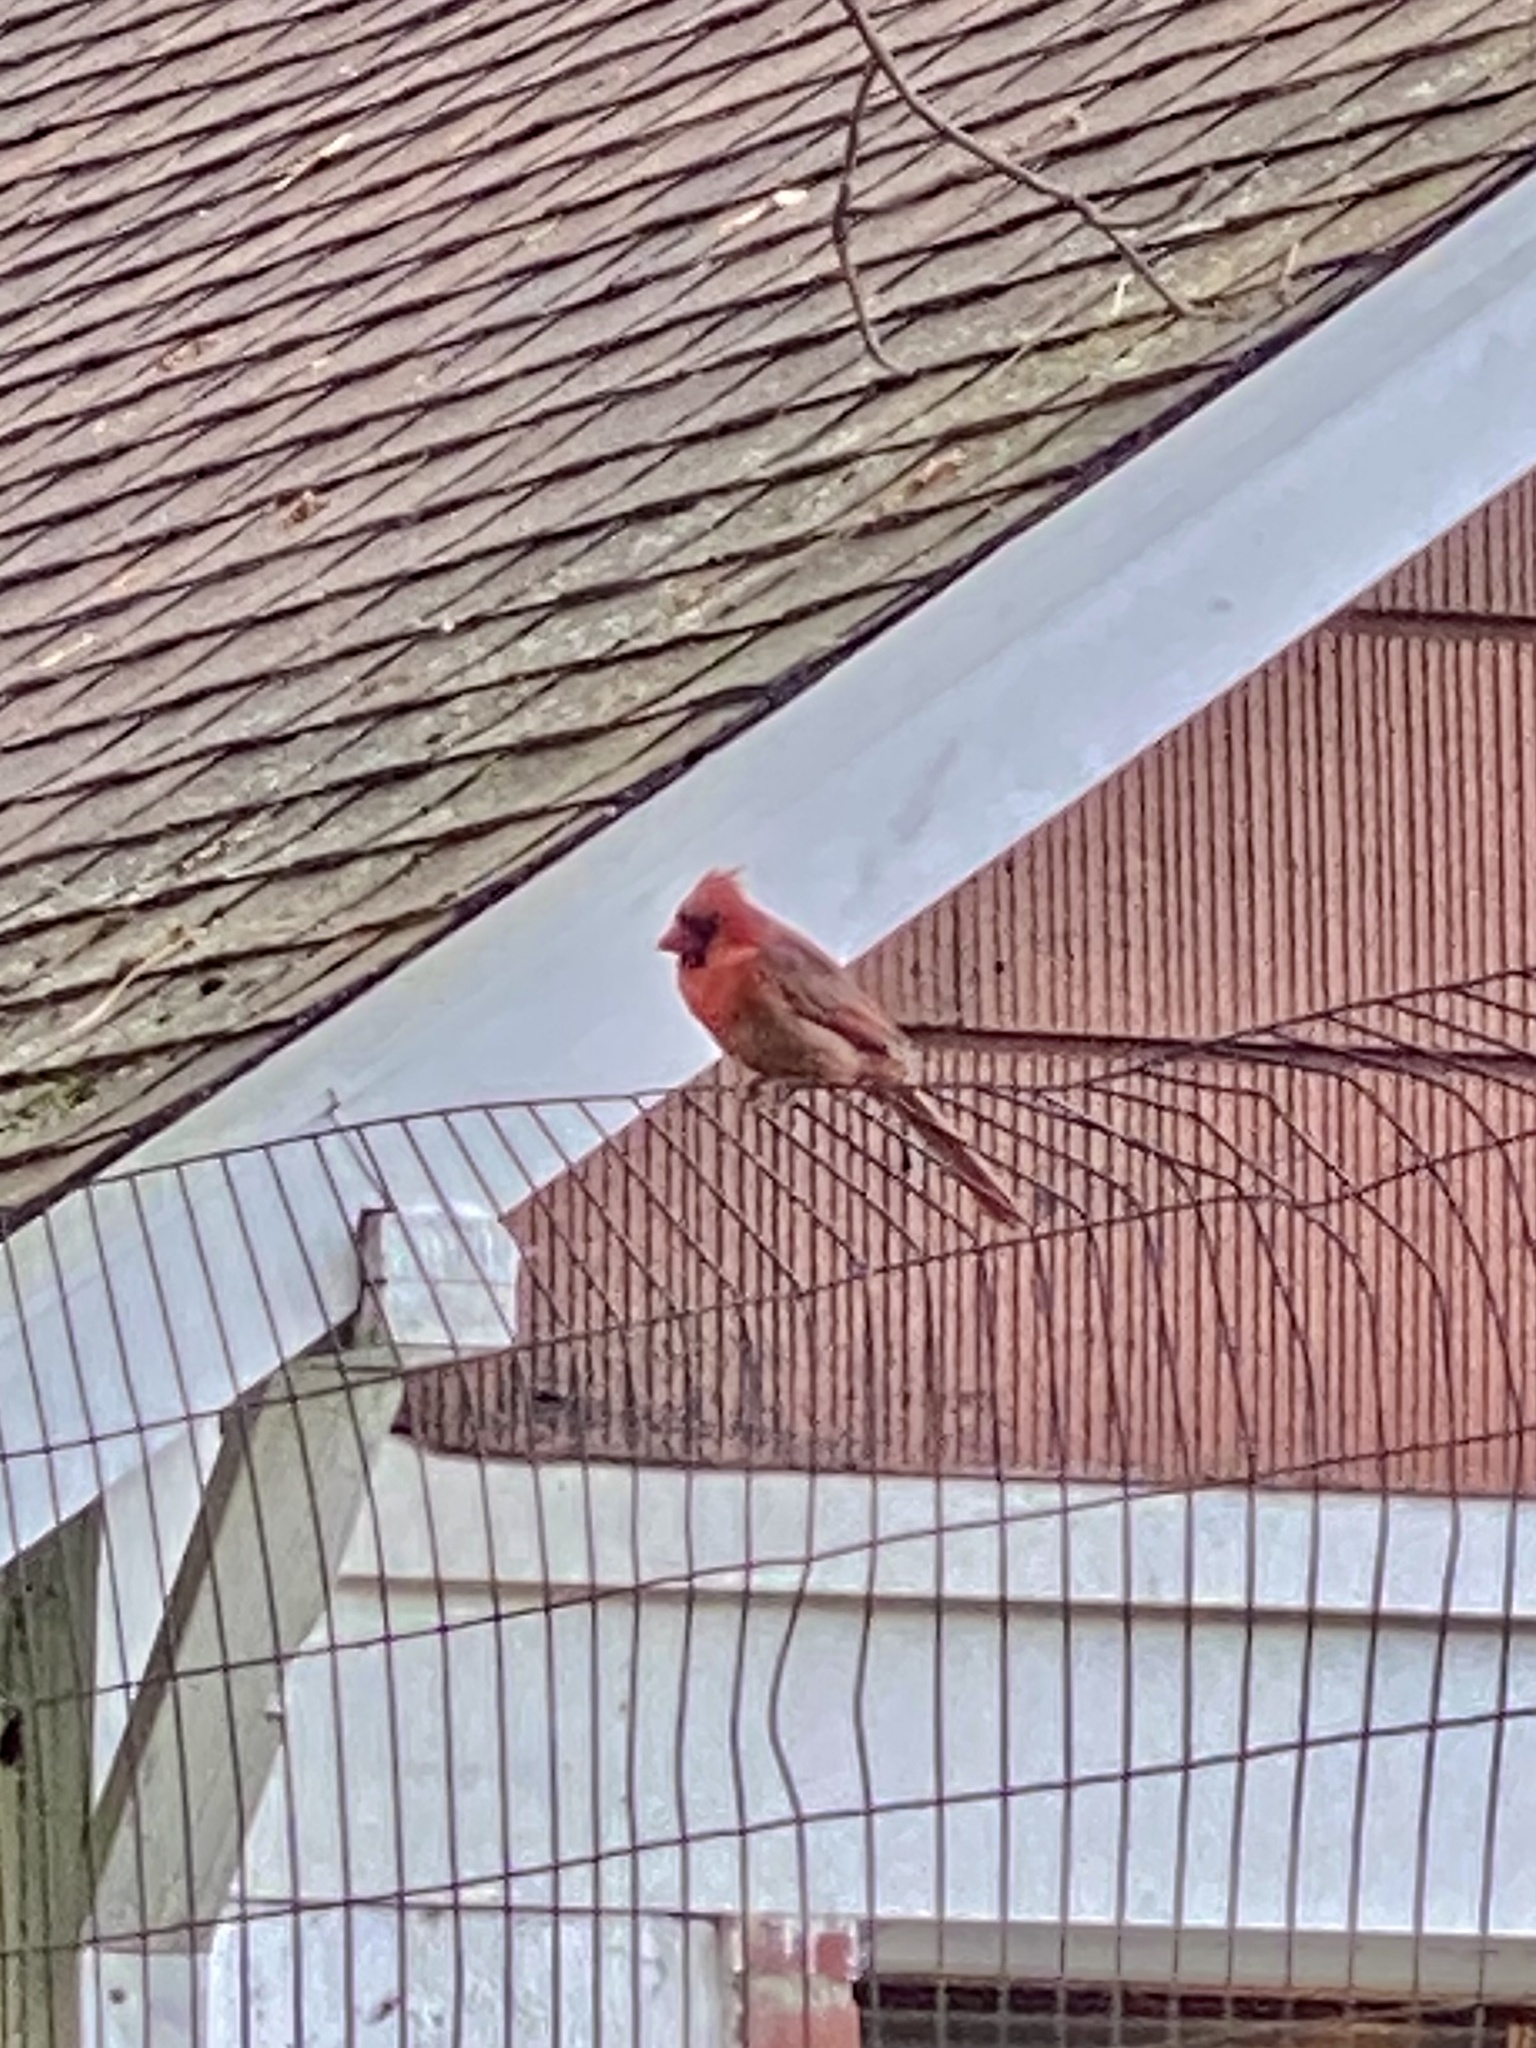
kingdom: Animalia
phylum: Chordata
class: Aves
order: Passeriformes
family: Cardinalidae
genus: Cardinalis
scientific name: Cardinalis cardinalis
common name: Northern cardinal
